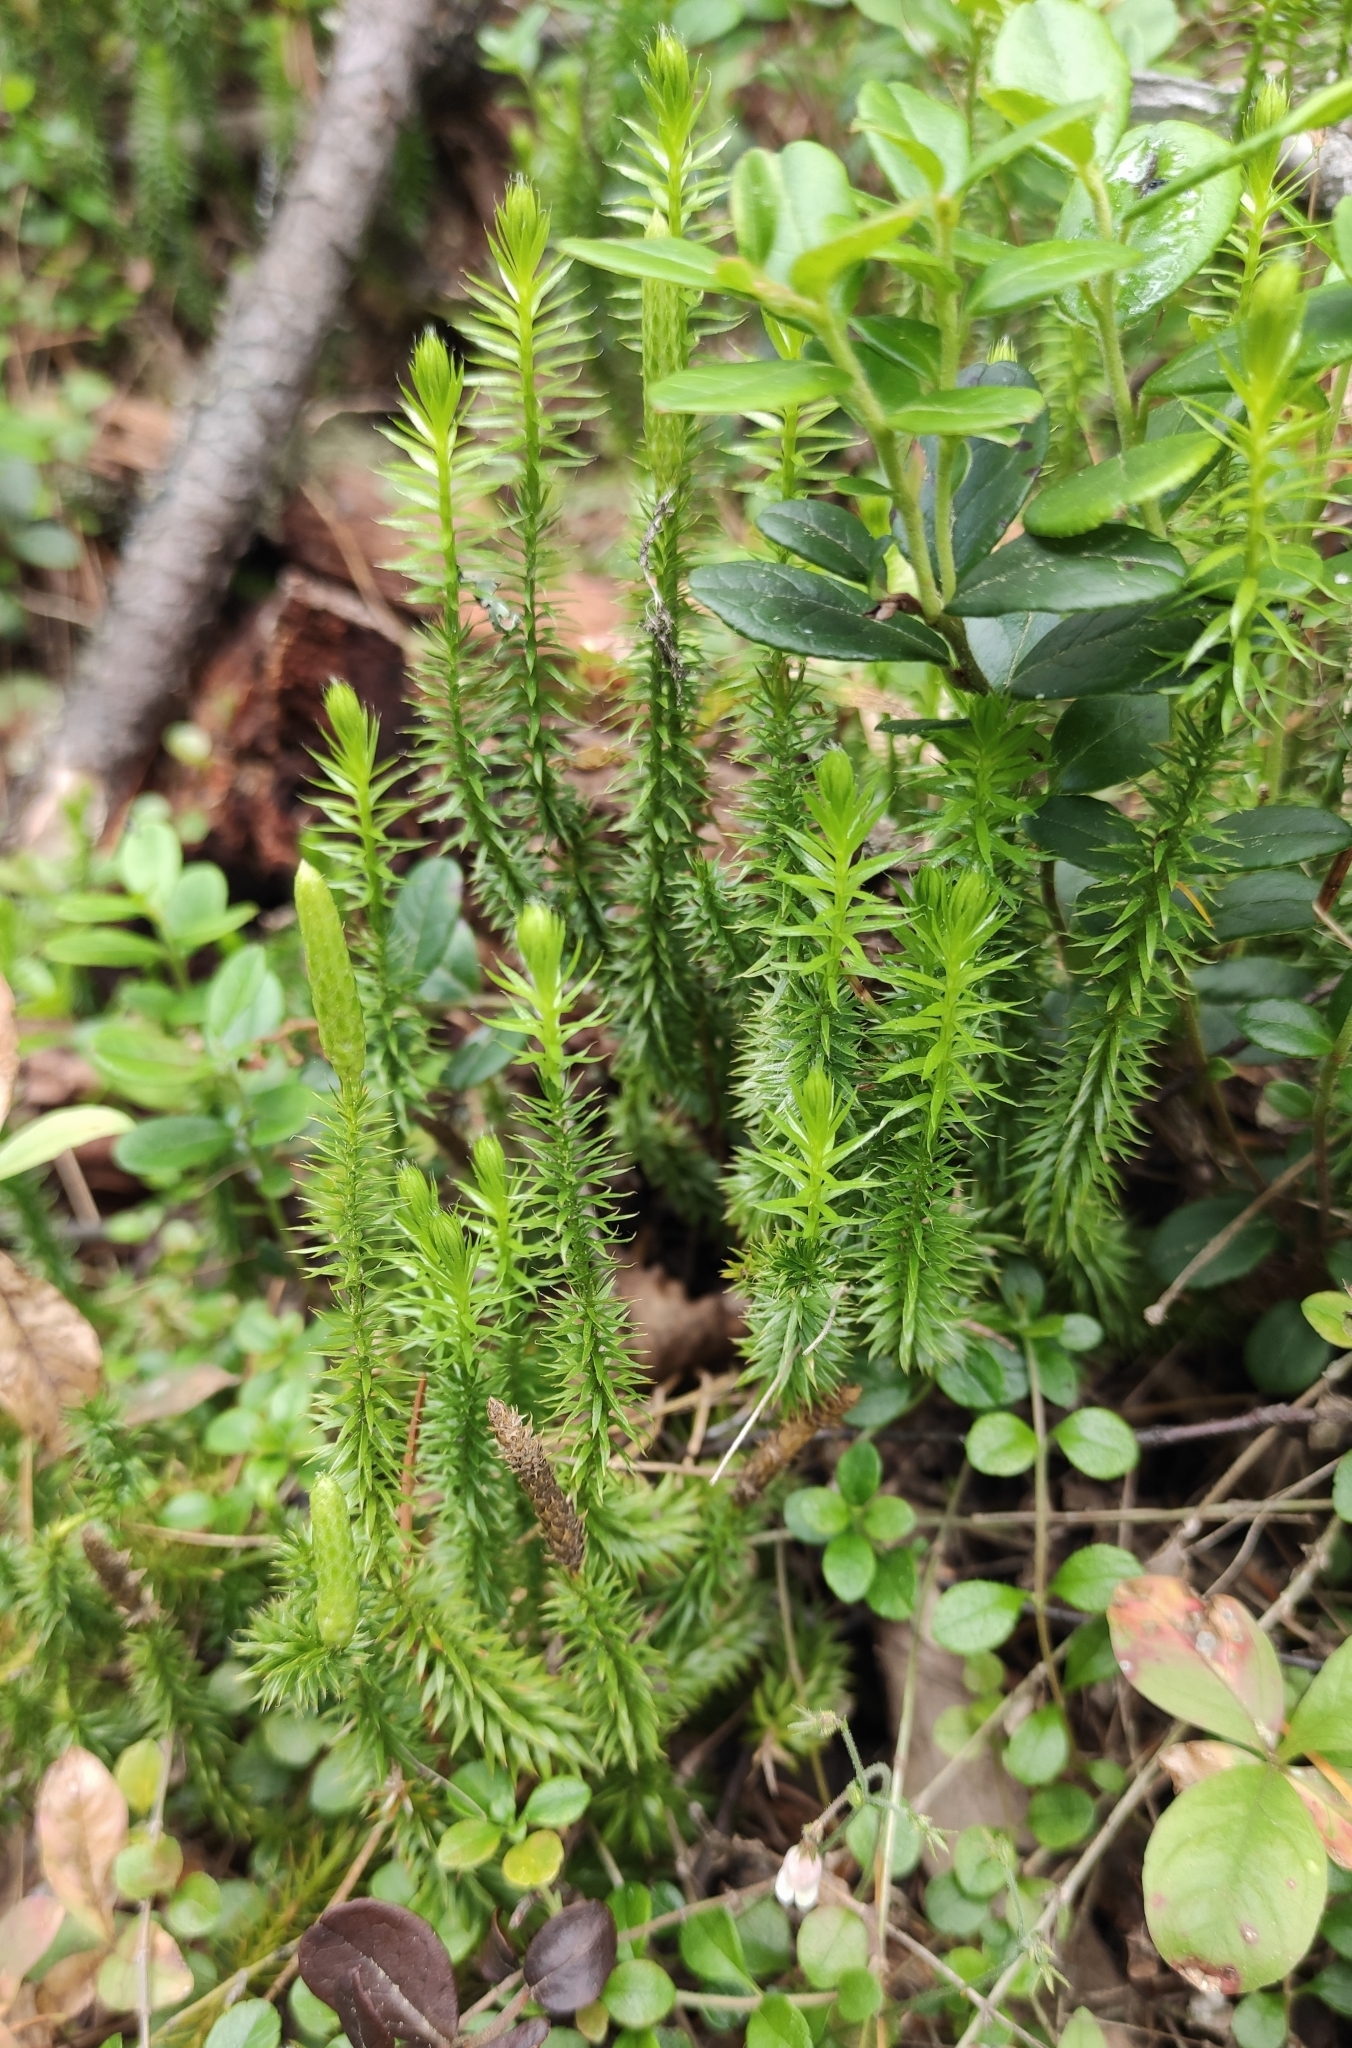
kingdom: Plantae
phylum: Tracheophyta
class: Lycopodiopsida
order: Lycopodiales
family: Lycopodiaceae
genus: Spinulum
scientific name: Spinulum annotinum
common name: Interrupted club-moss
